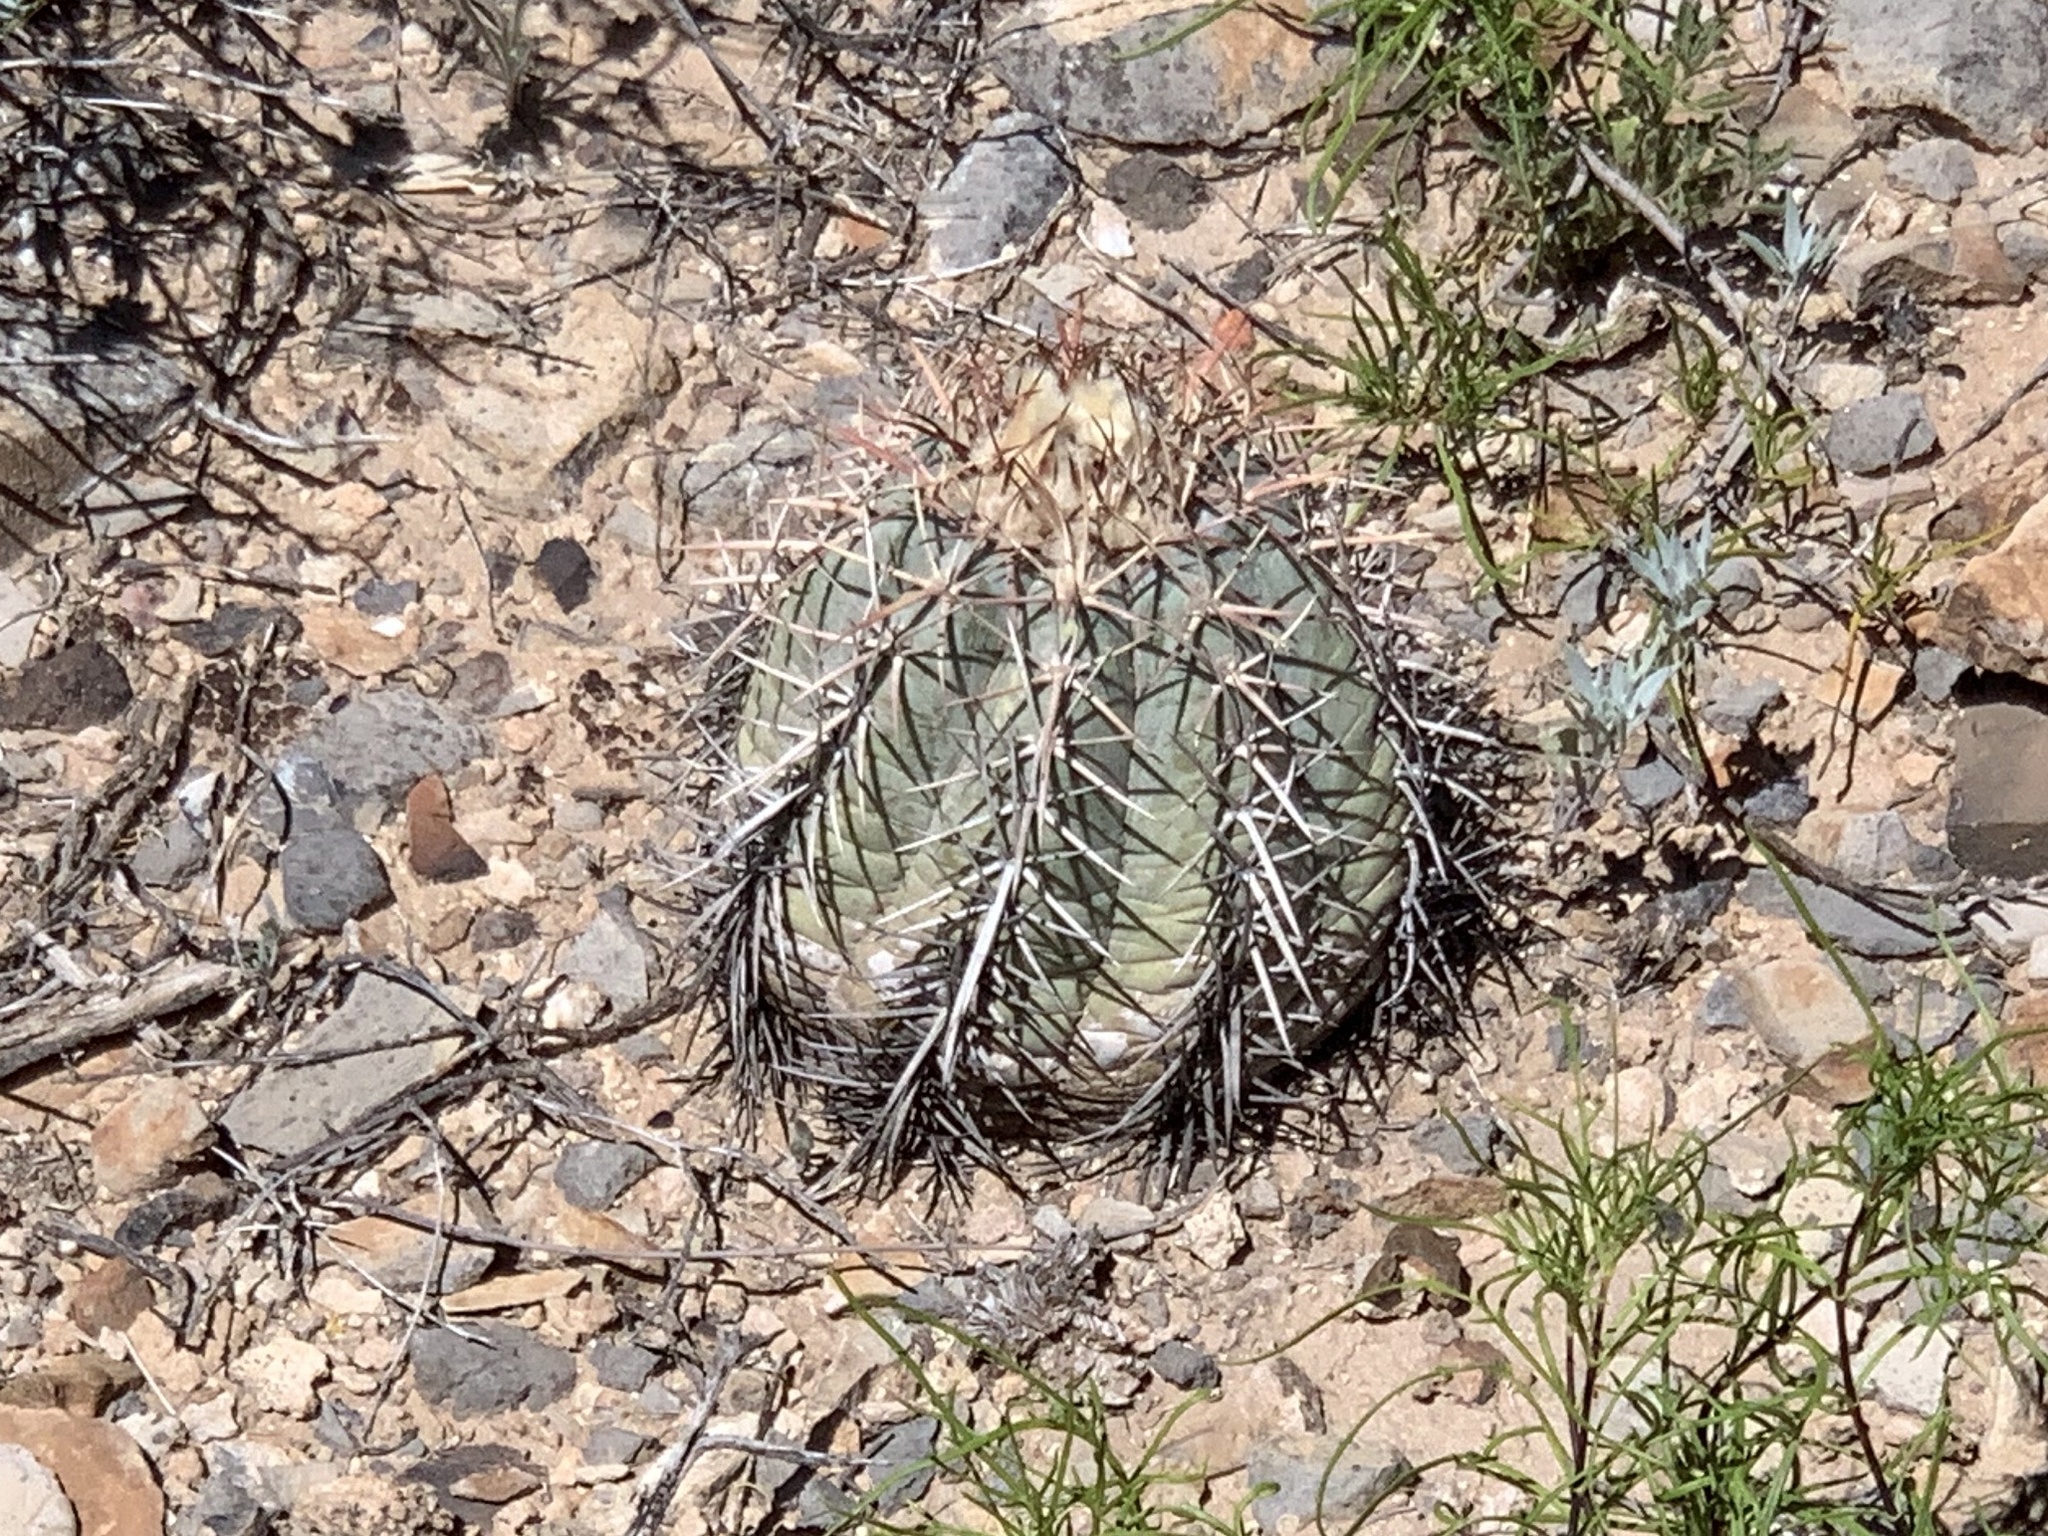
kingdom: Plantae
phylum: Tracheophyta
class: Magnoliopsida
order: Caryophyllales
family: Cactaceae
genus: Echinocactus
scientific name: Echinocactus horizonthalonius
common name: Devilshead
